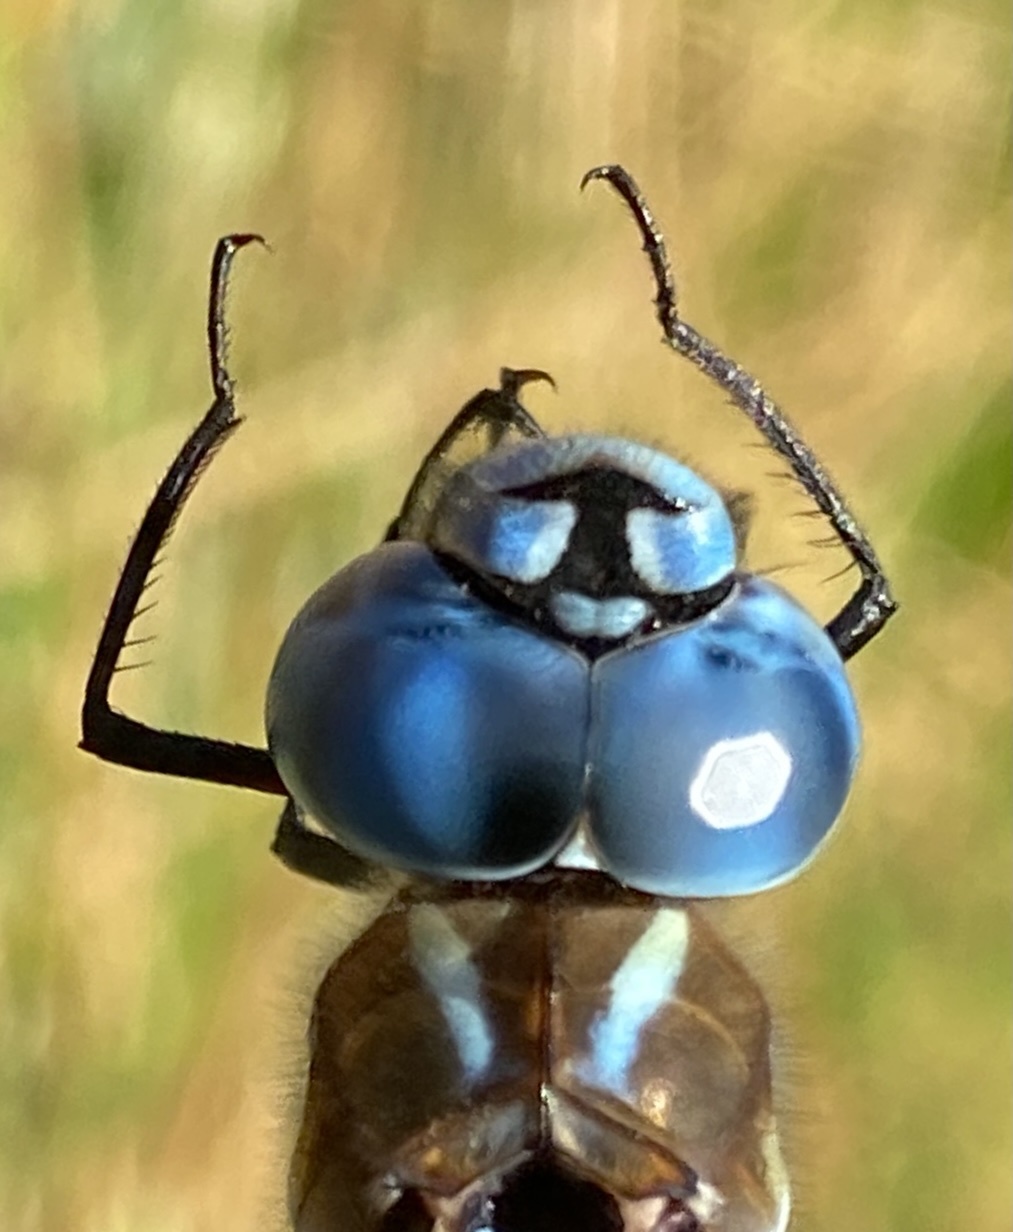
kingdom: Animalia
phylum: Arthropoda
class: Insecta
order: Odonata
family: Aeshnidae
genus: Rhionaeschna
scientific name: Rhionaeschna multicolor
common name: Blue-eyed darner
